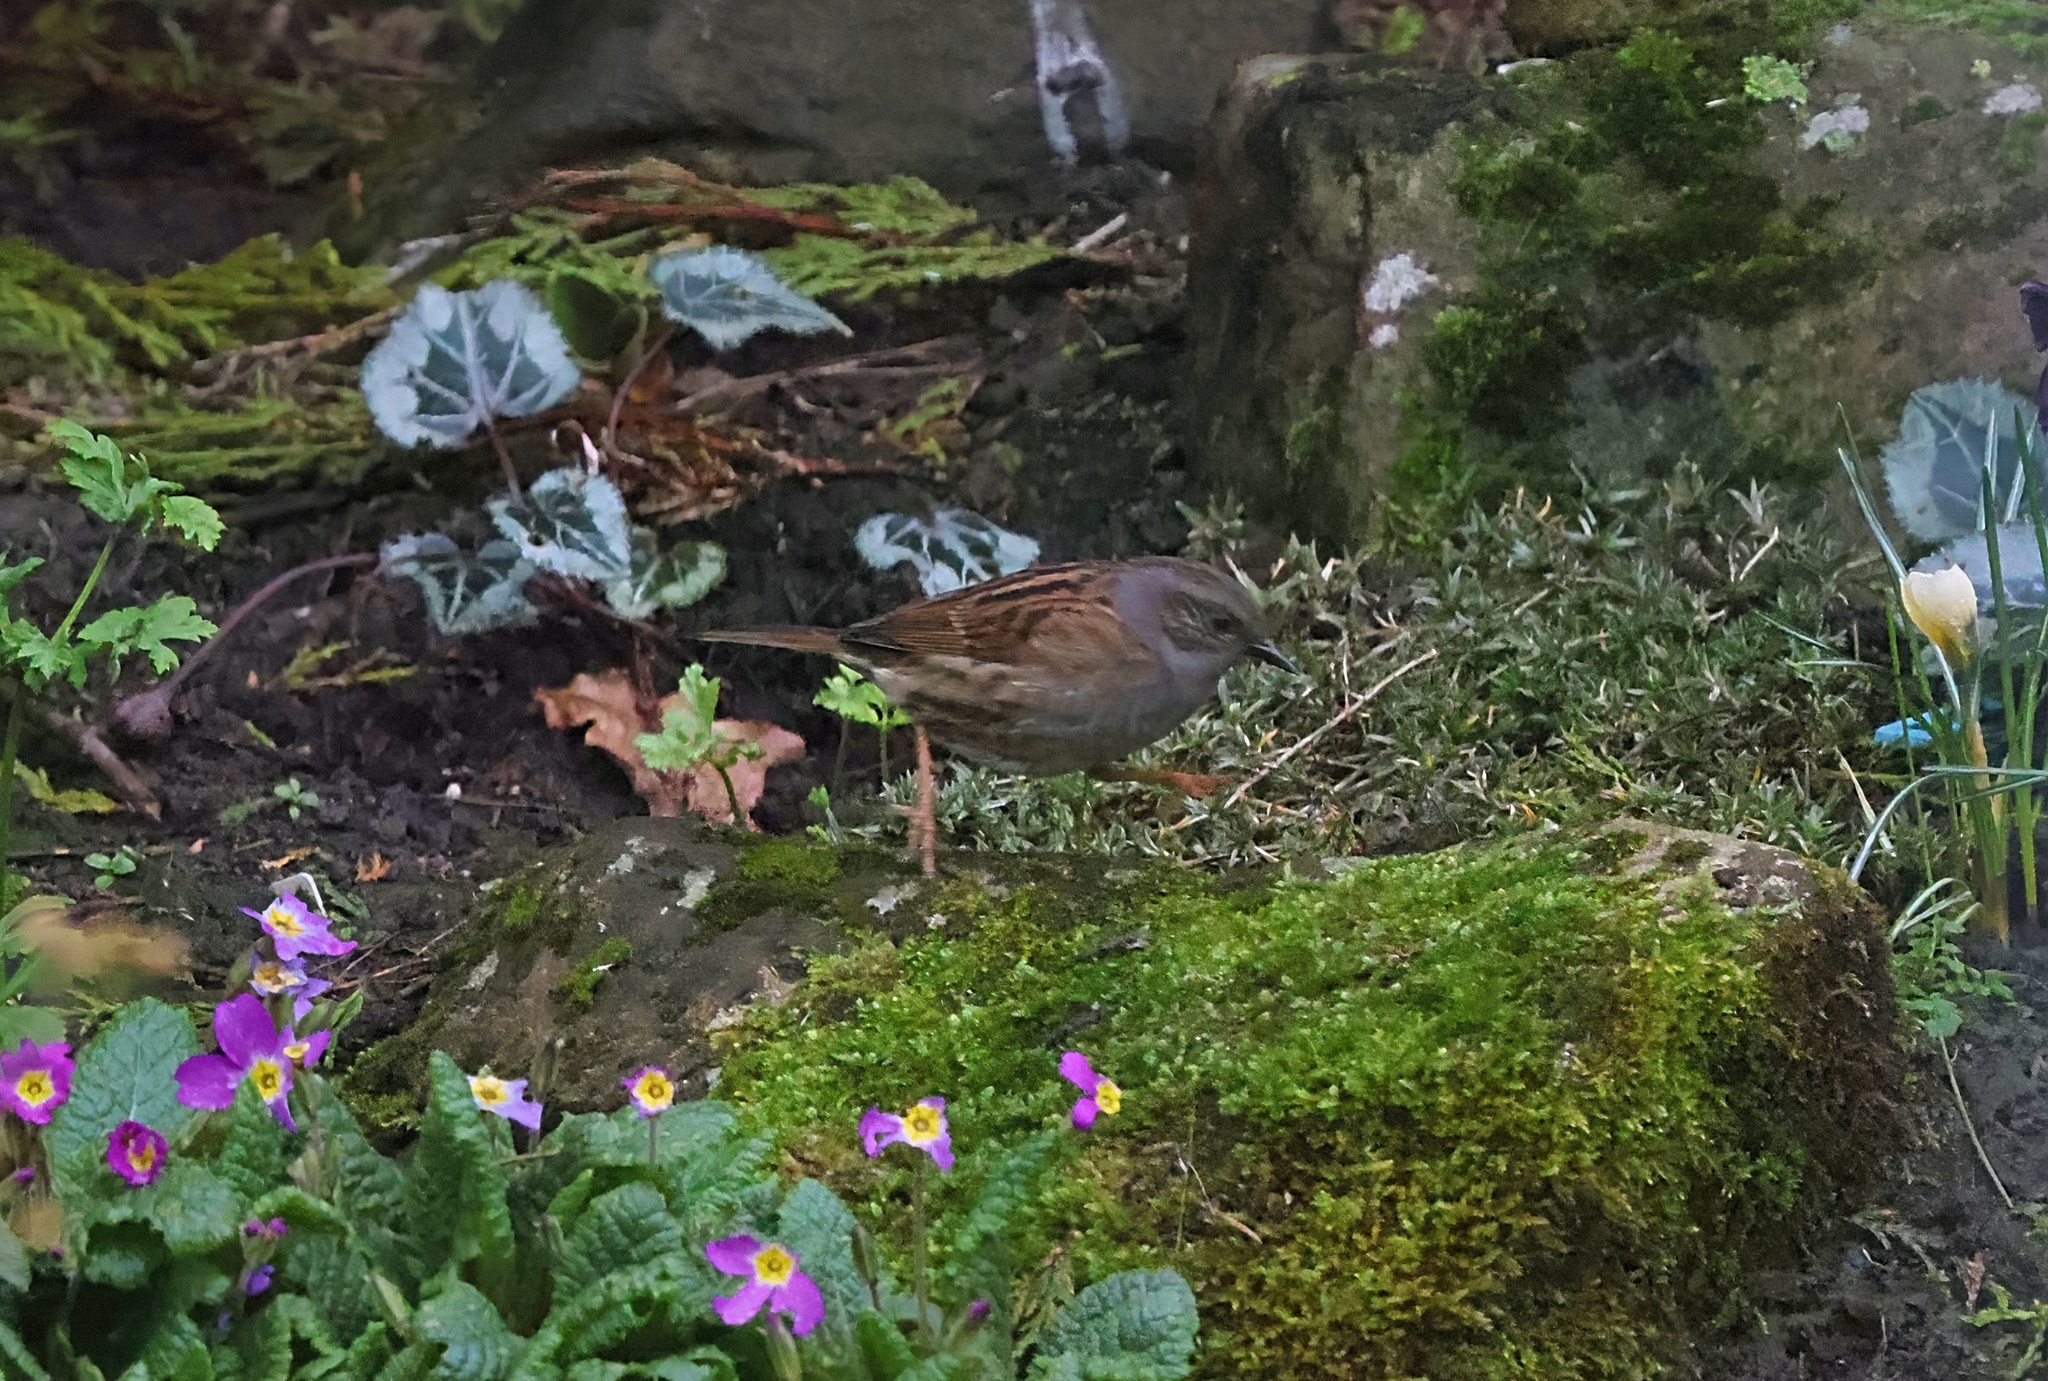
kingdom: Animalia
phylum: Chordata
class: Aves
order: Passeriformes
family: Prunellidae
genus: Prunella
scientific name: Prunella modularis
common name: Dunnock
